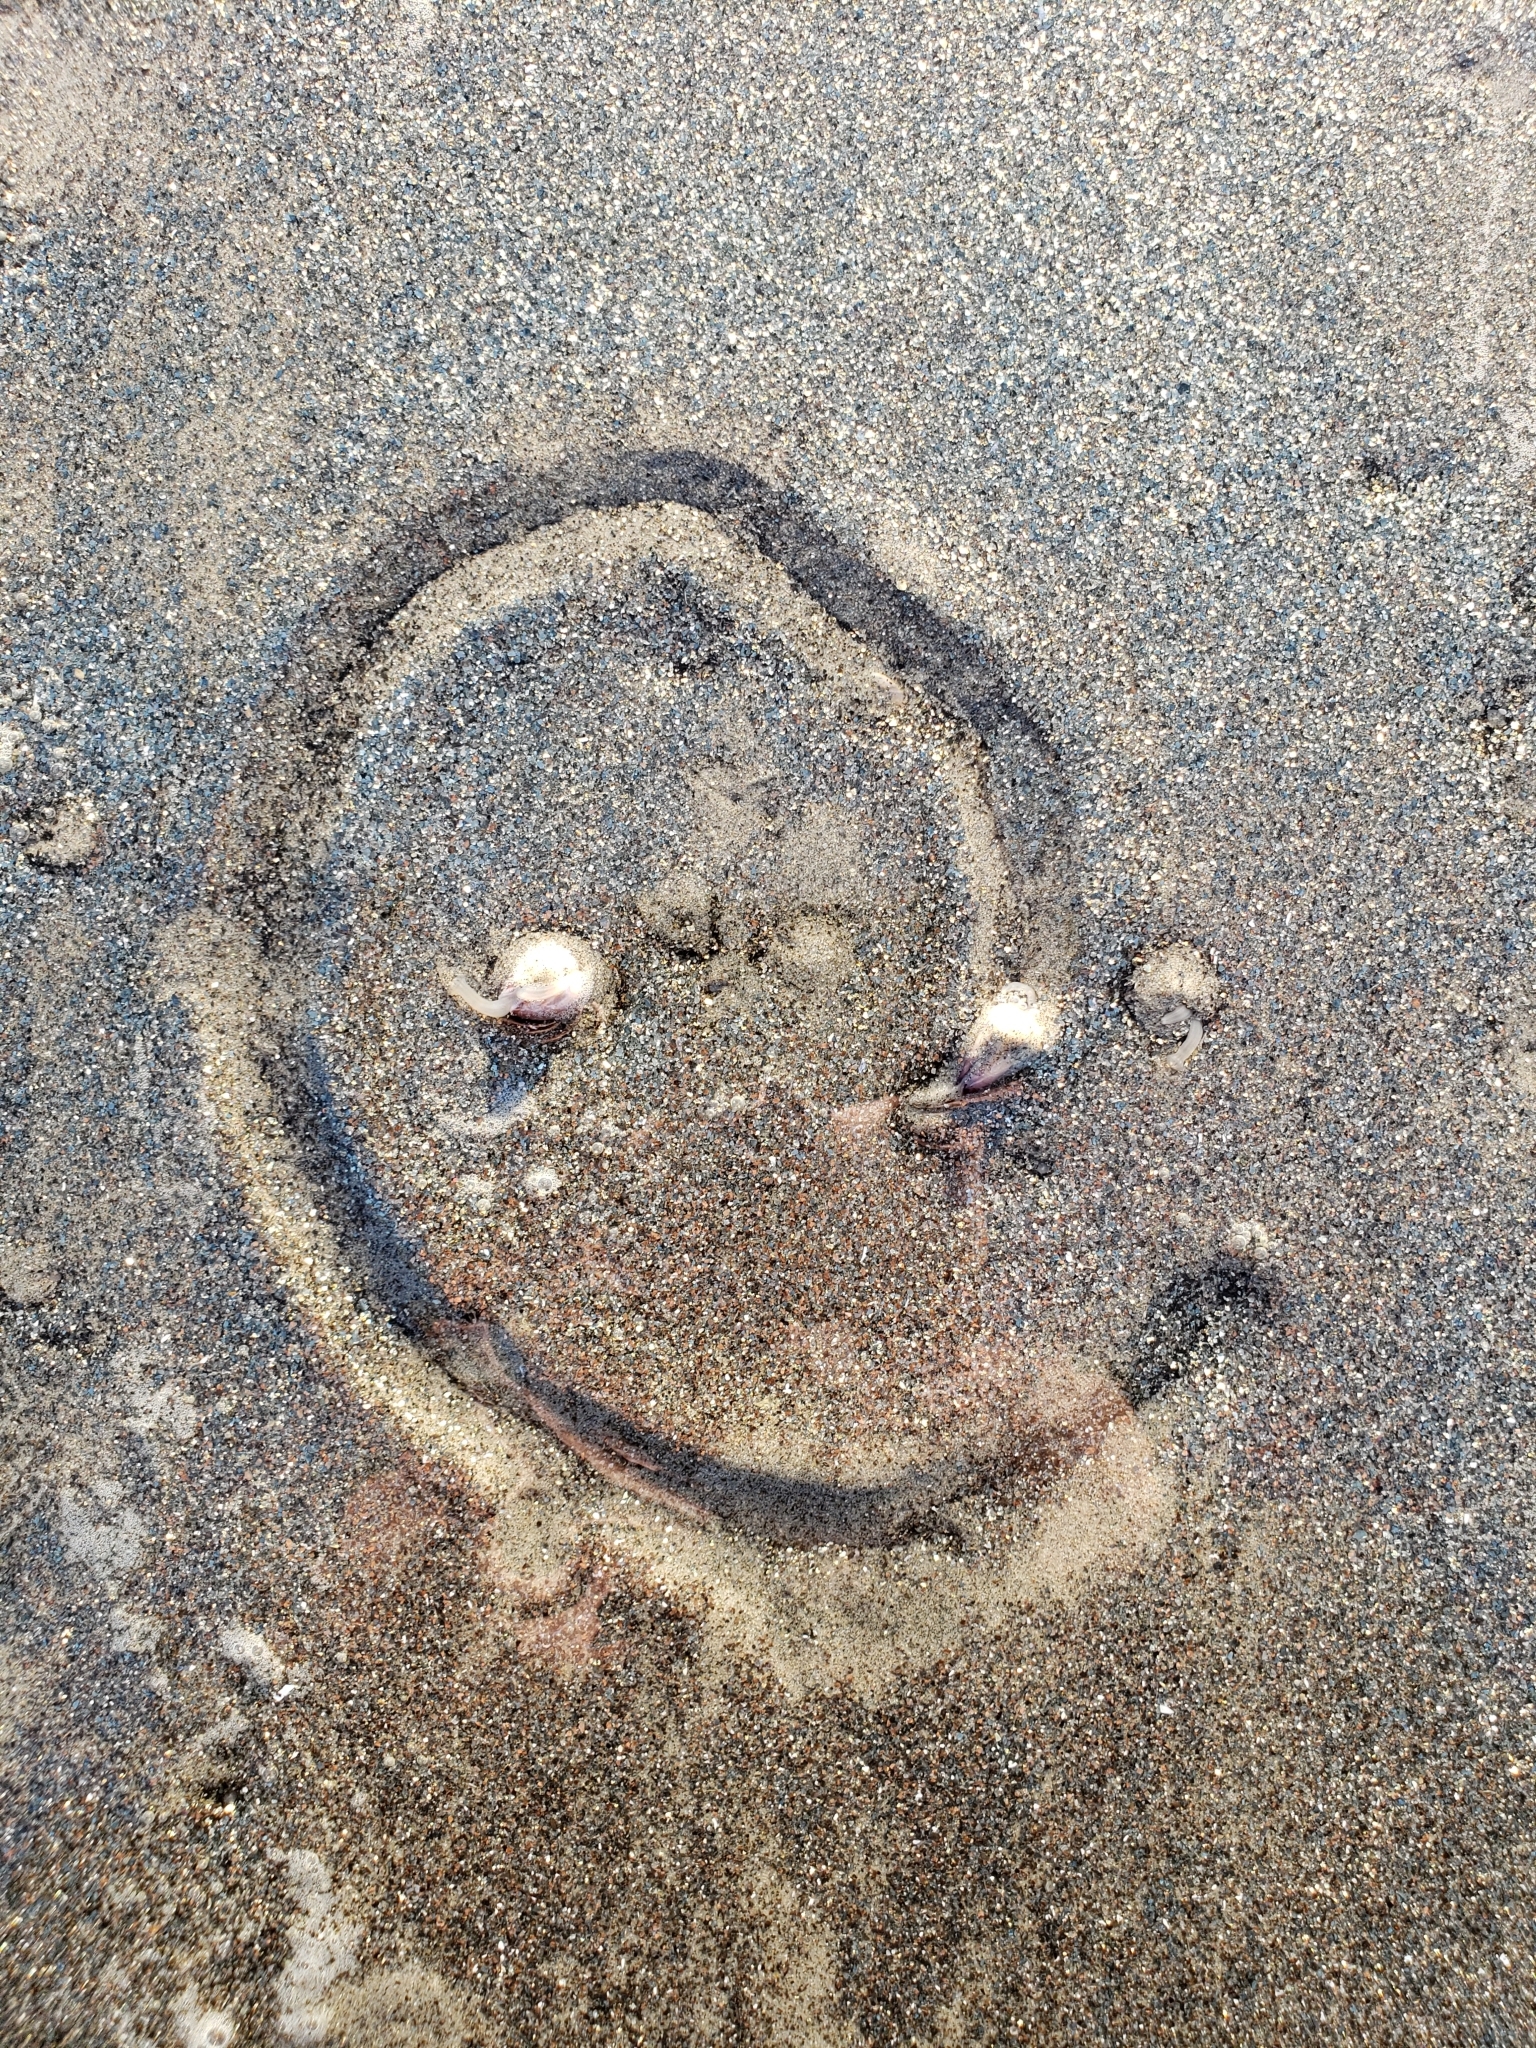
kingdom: Animalia
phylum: Mollusca
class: Bivalvia
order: Cardiida
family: Donacidae
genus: Donax
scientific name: Donax gouldii
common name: Gould beanclam
